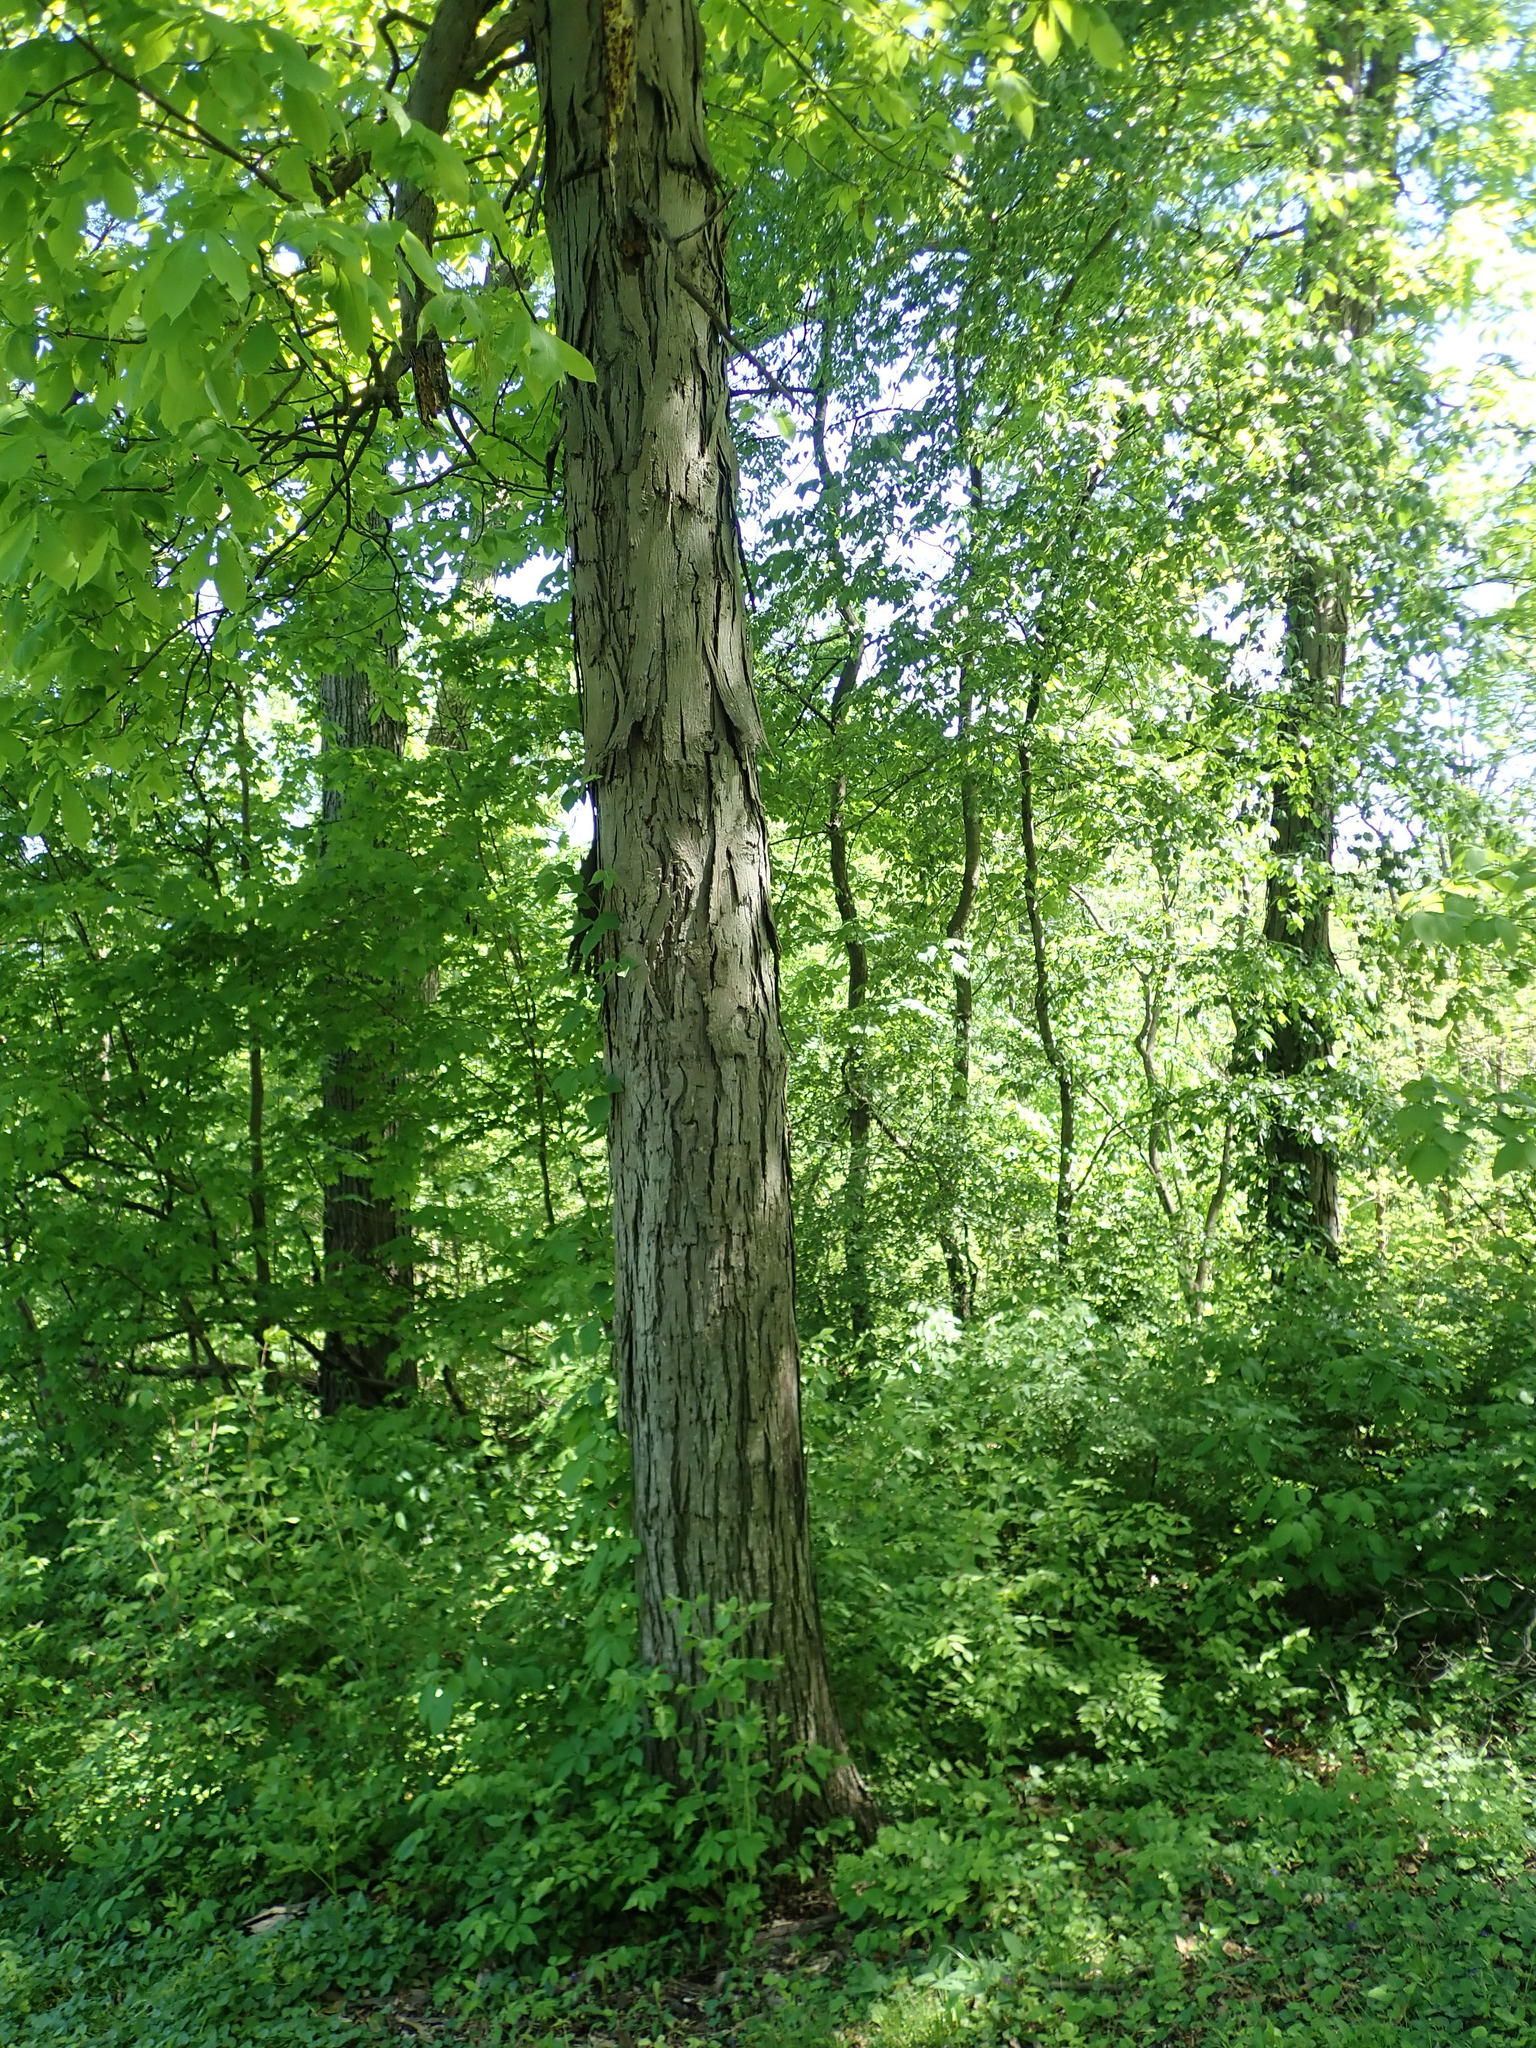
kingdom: Plantae
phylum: Tracheophyta
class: Magnoliopsida
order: Fagales
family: Juglandaceae
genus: Carya
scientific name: Carya ovata
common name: Shagbark hickory
